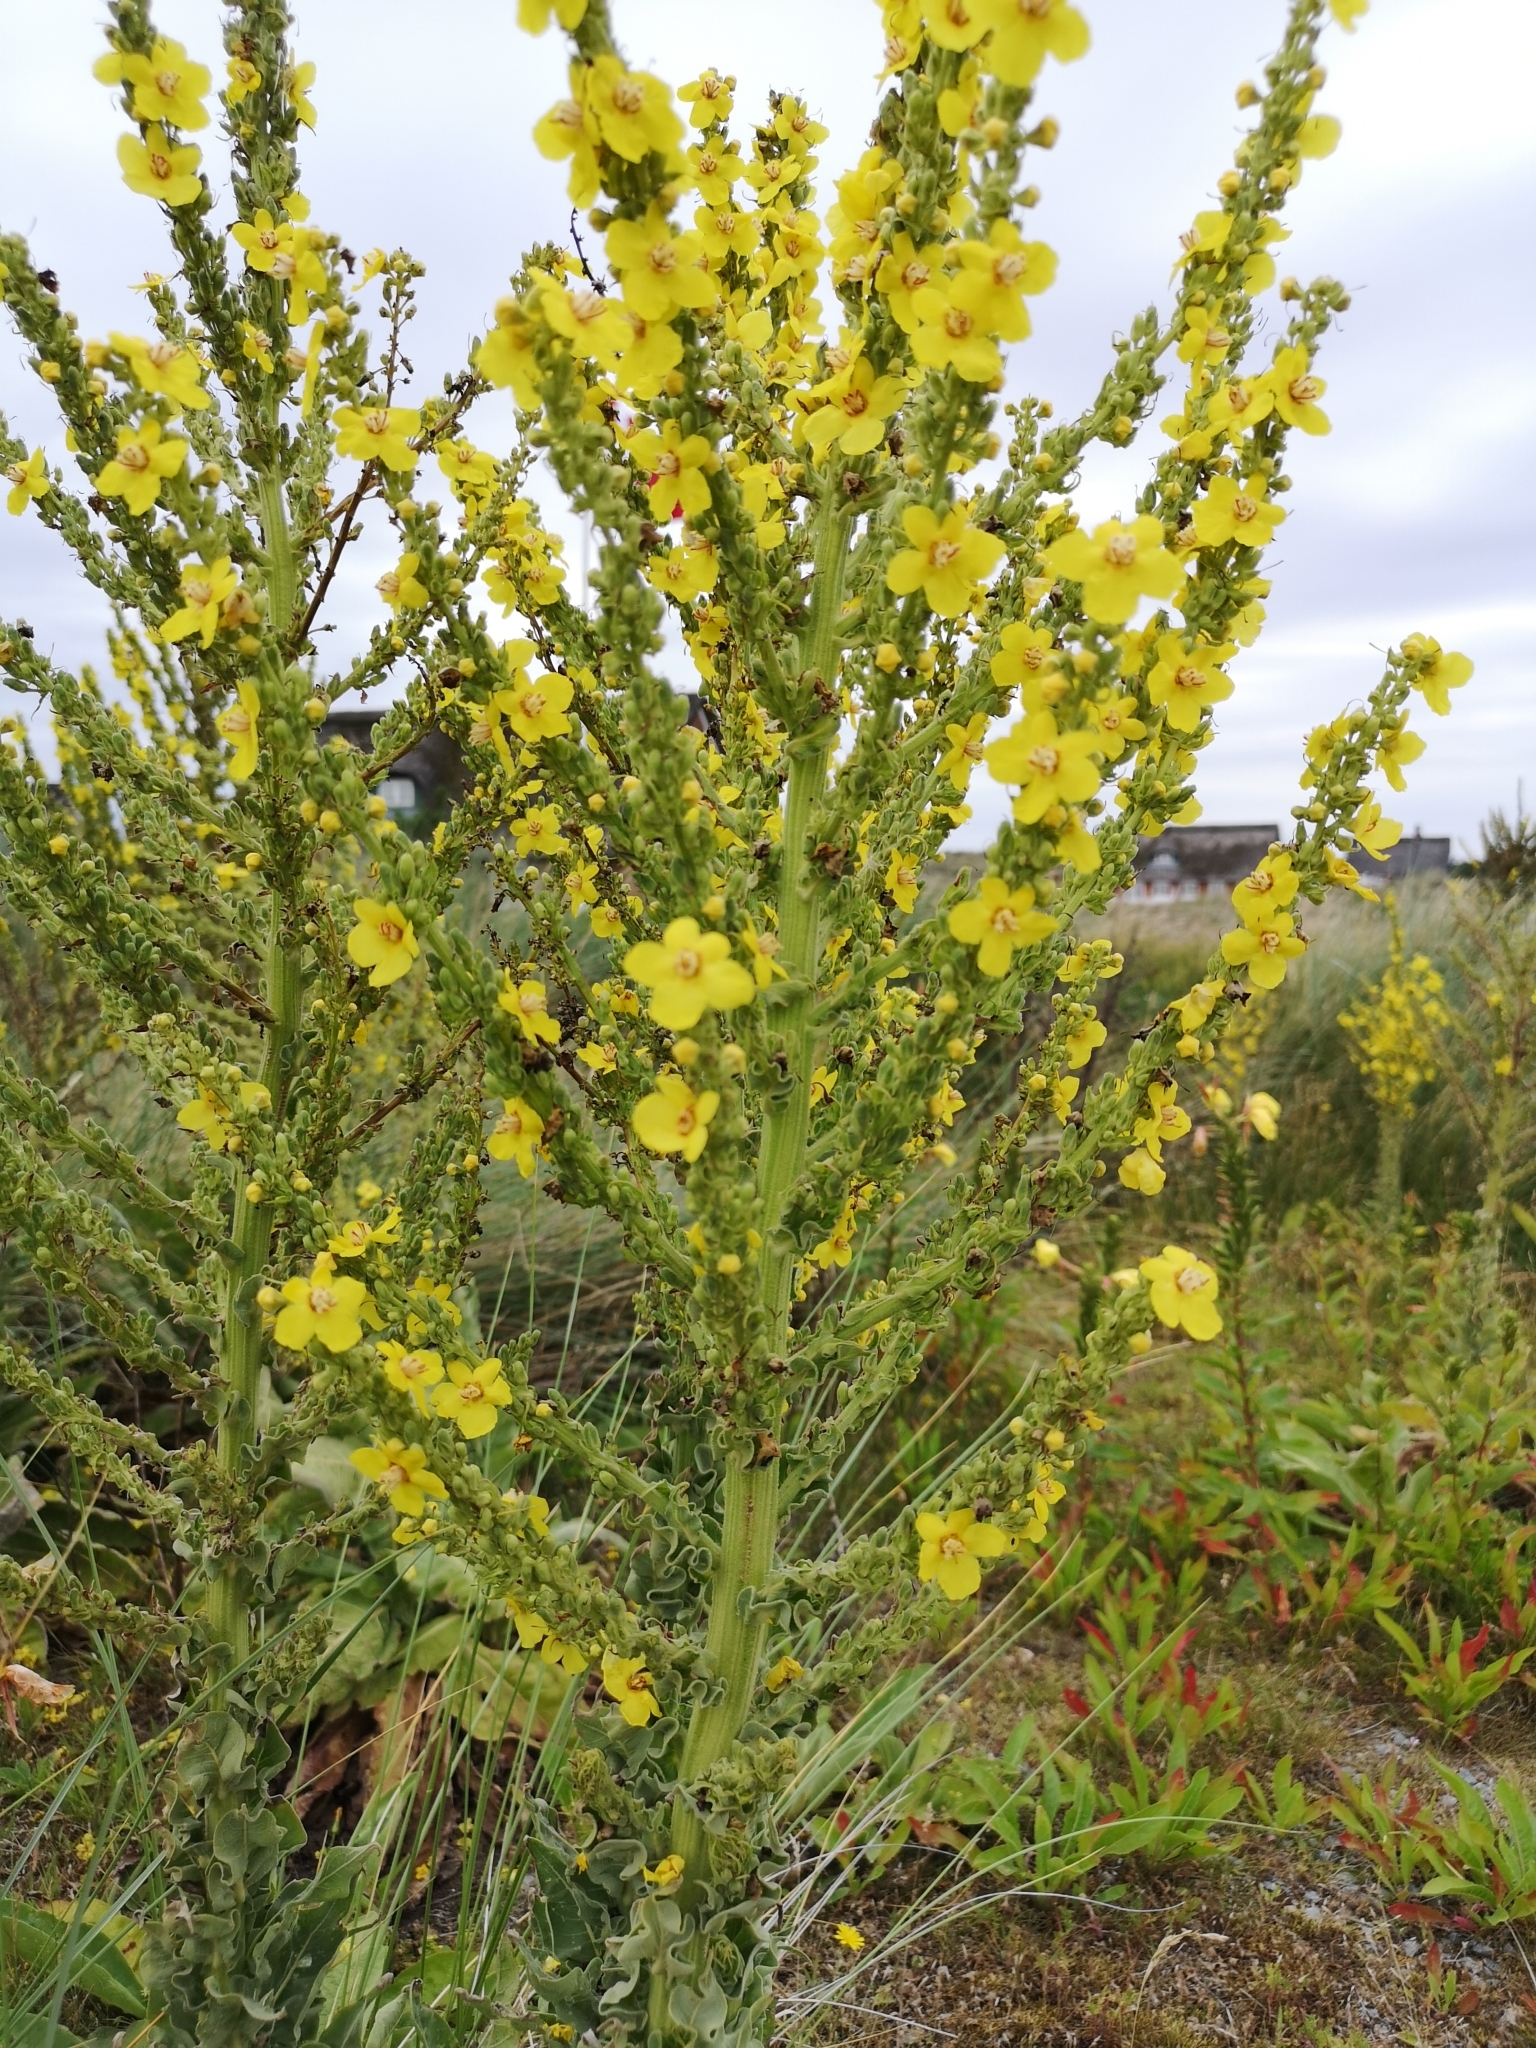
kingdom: Plantae
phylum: Tracheophyta
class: Magnoliopsida
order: Lamiales
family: Scrophulariaceae
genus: Verbascum
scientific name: Verbascum speciosum
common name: Hungarian mullein
